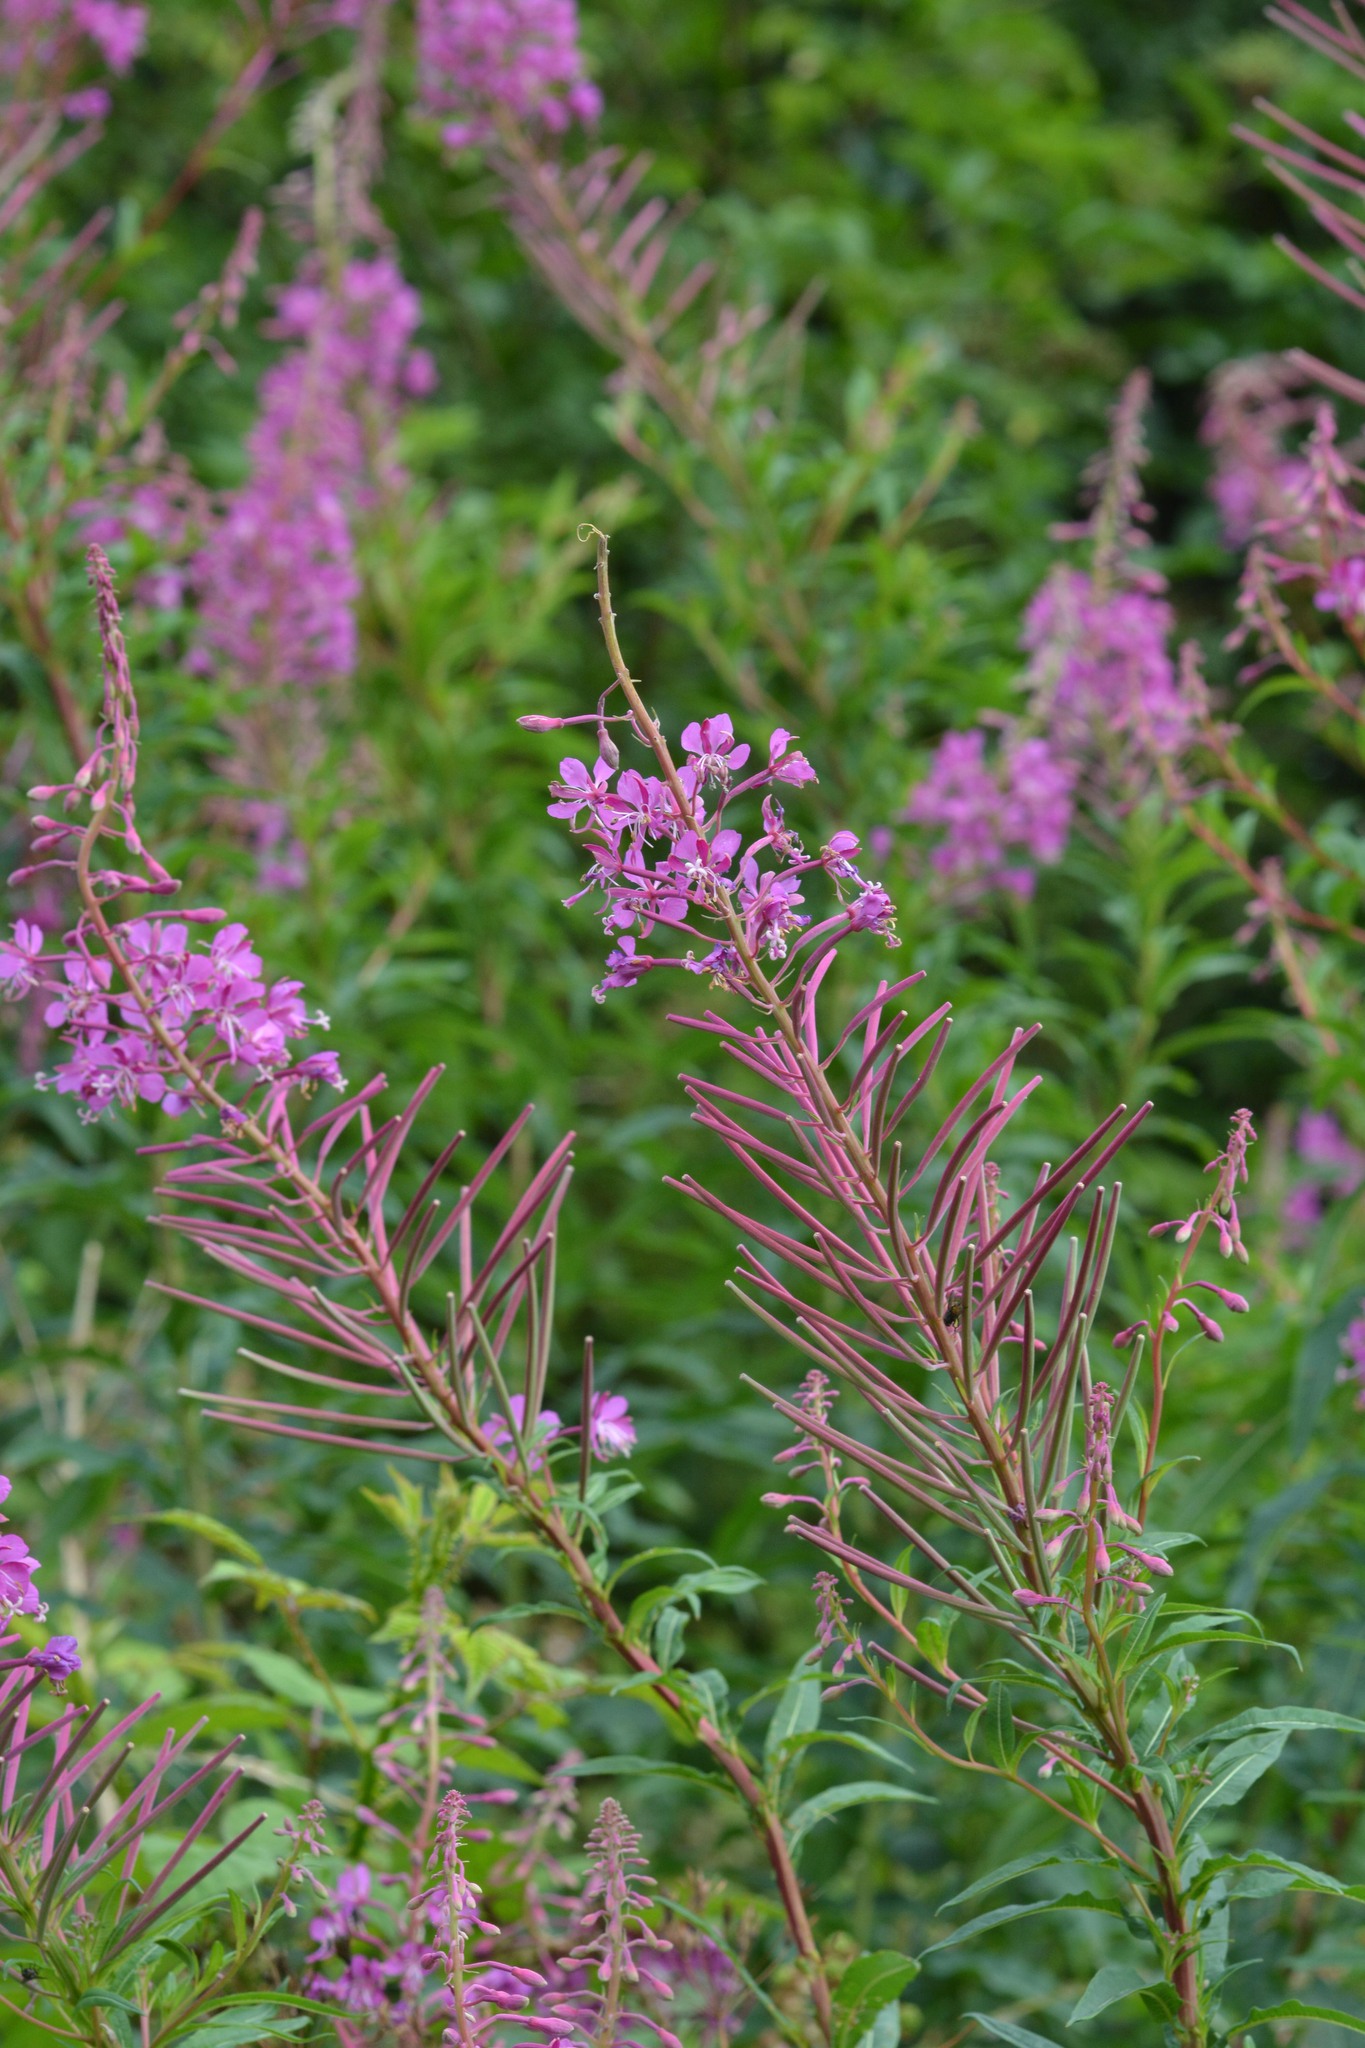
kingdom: Plantae
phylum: Tracheophyta
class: Magnoliopsida
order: Myrtales
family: Onagraceae
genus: Chamaenerion
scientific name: Chamaenerion angustifolium
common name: Fireweed
